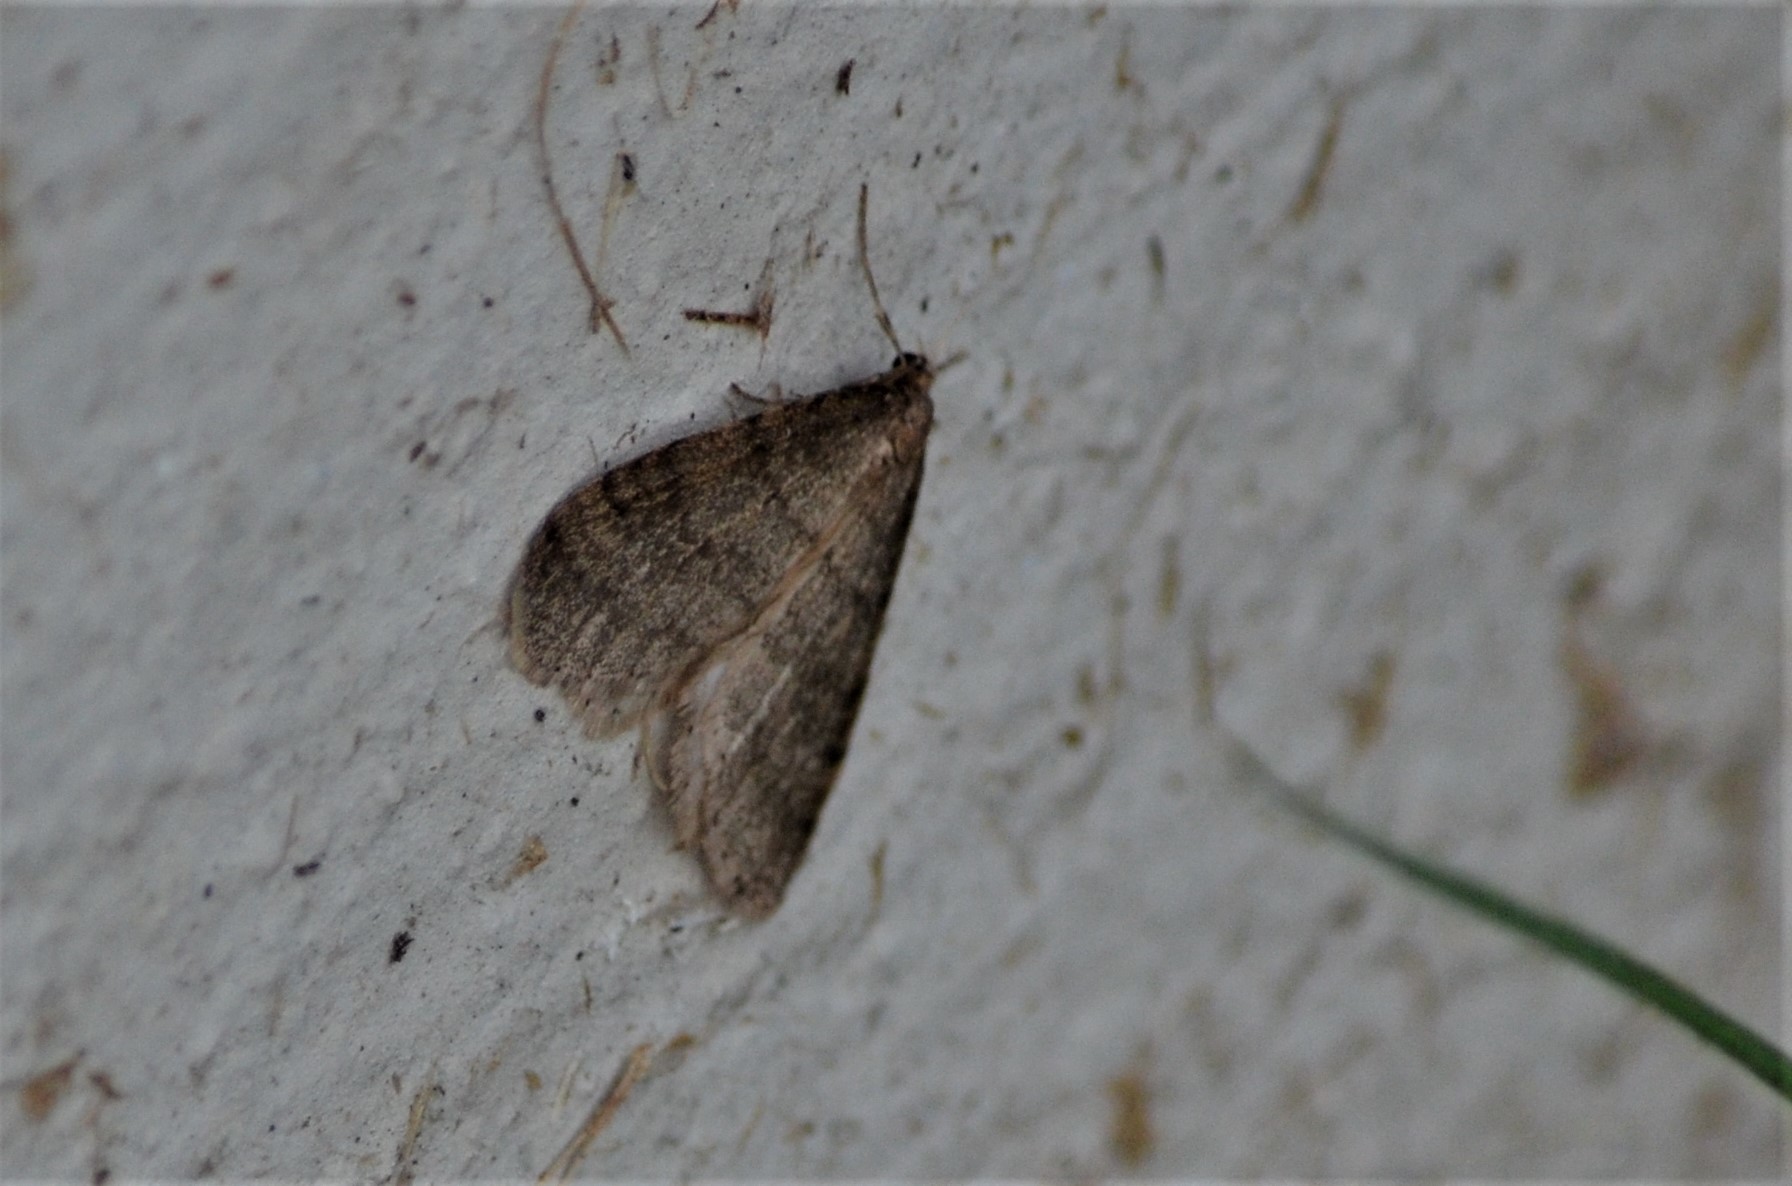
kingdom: Animalia
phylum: Arthropoda
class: Insecta
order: Lepidoptera
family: Geometridae
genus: Operophtera
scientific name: Operophtera brumata
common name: Winter moth
